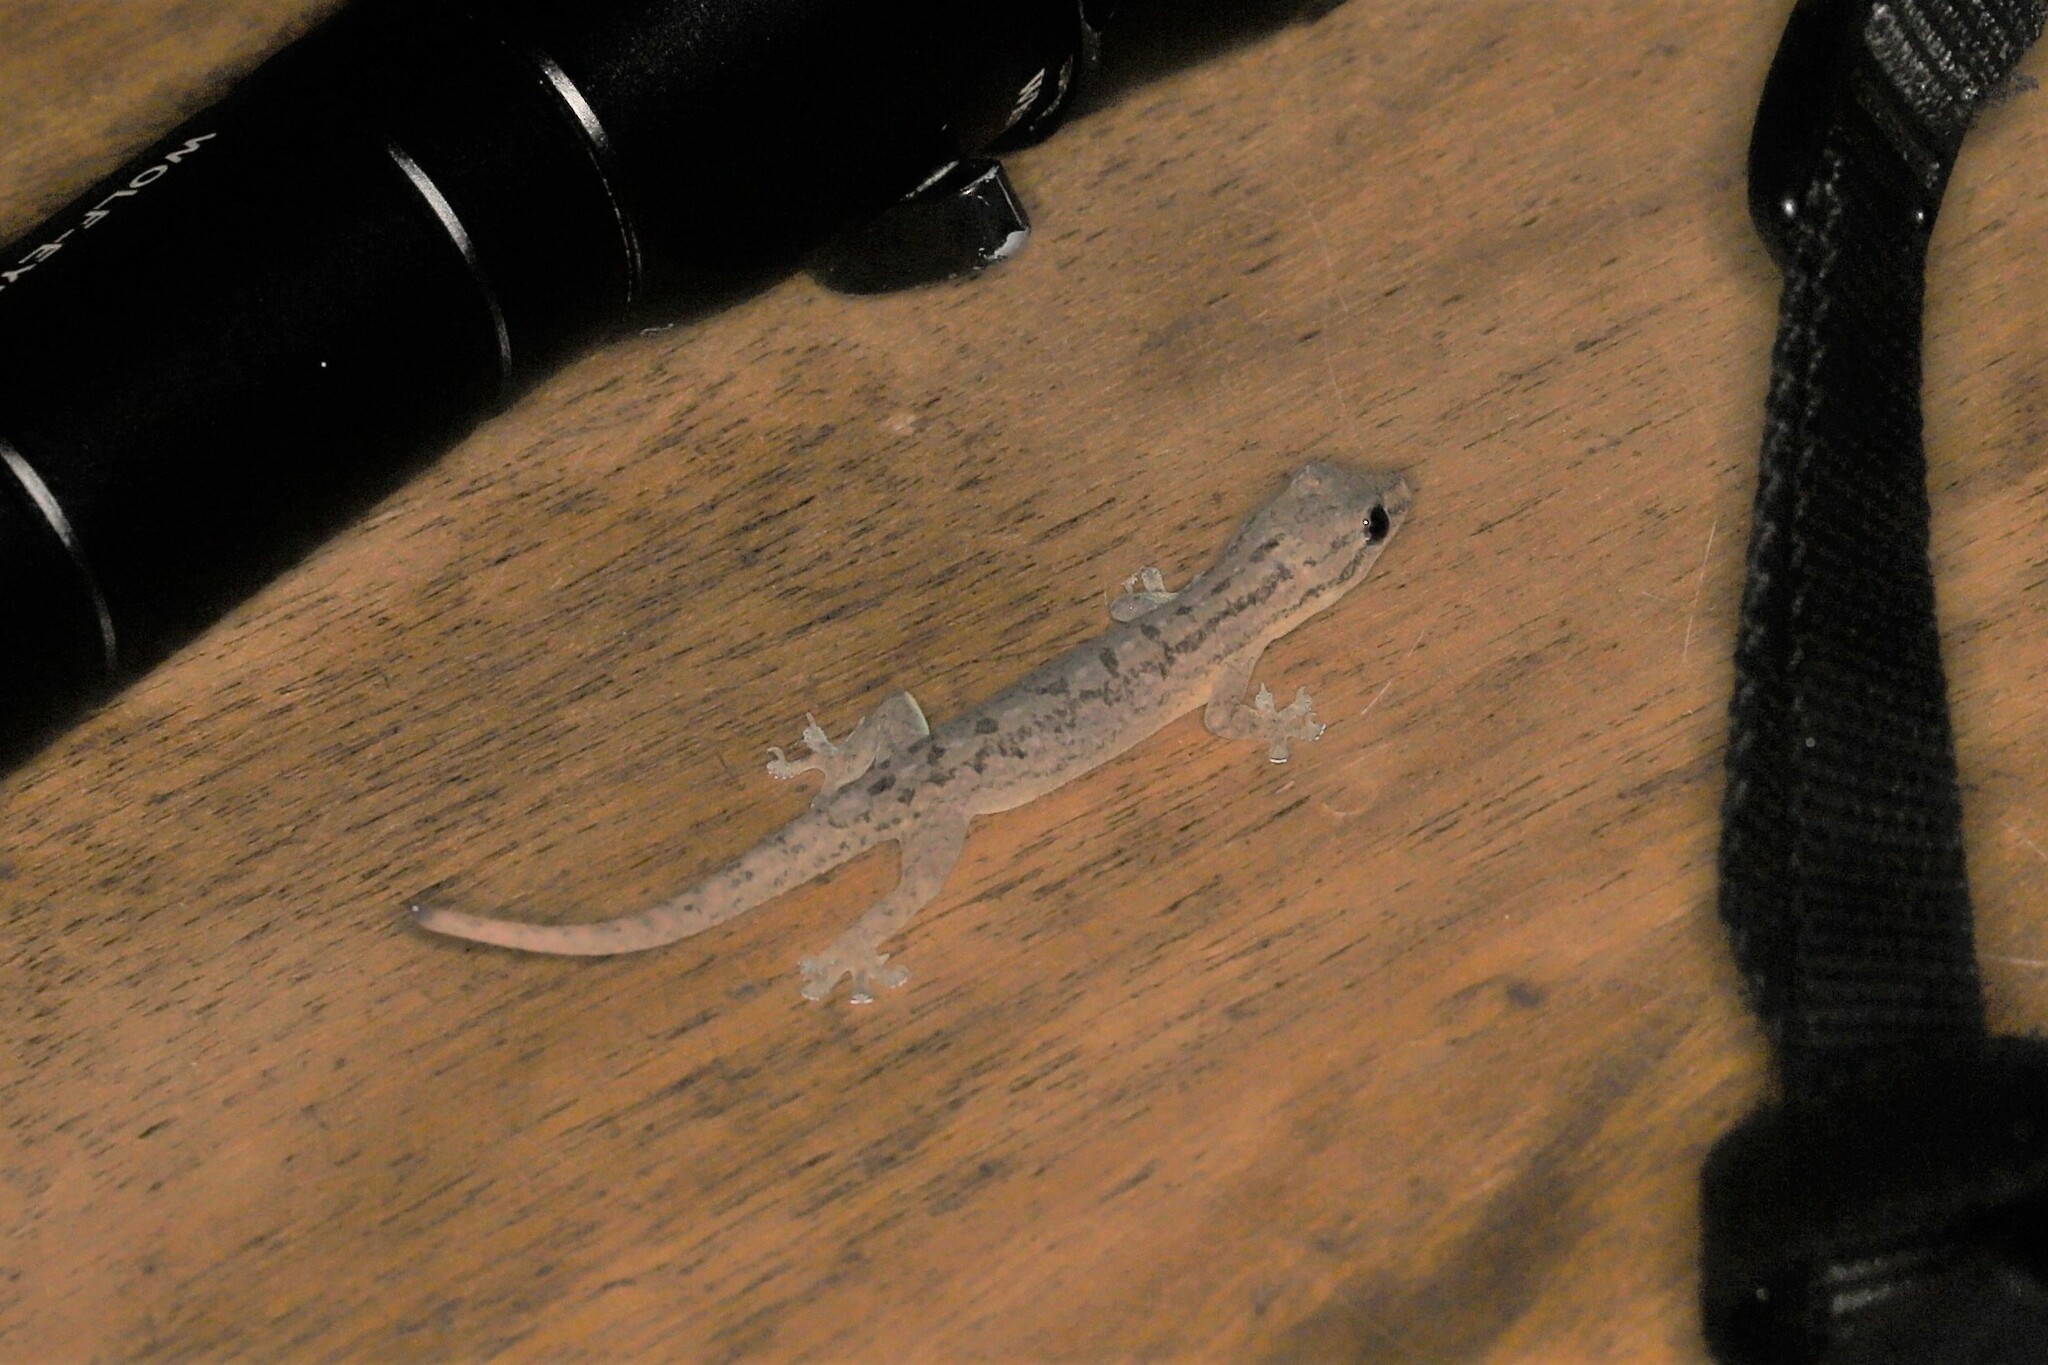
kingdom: Animalia
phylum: Chordata
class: Squamata
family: Gekkonidae
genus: Hemidactylus
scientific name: Hemidactylus frenatus
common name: Common house gecko
